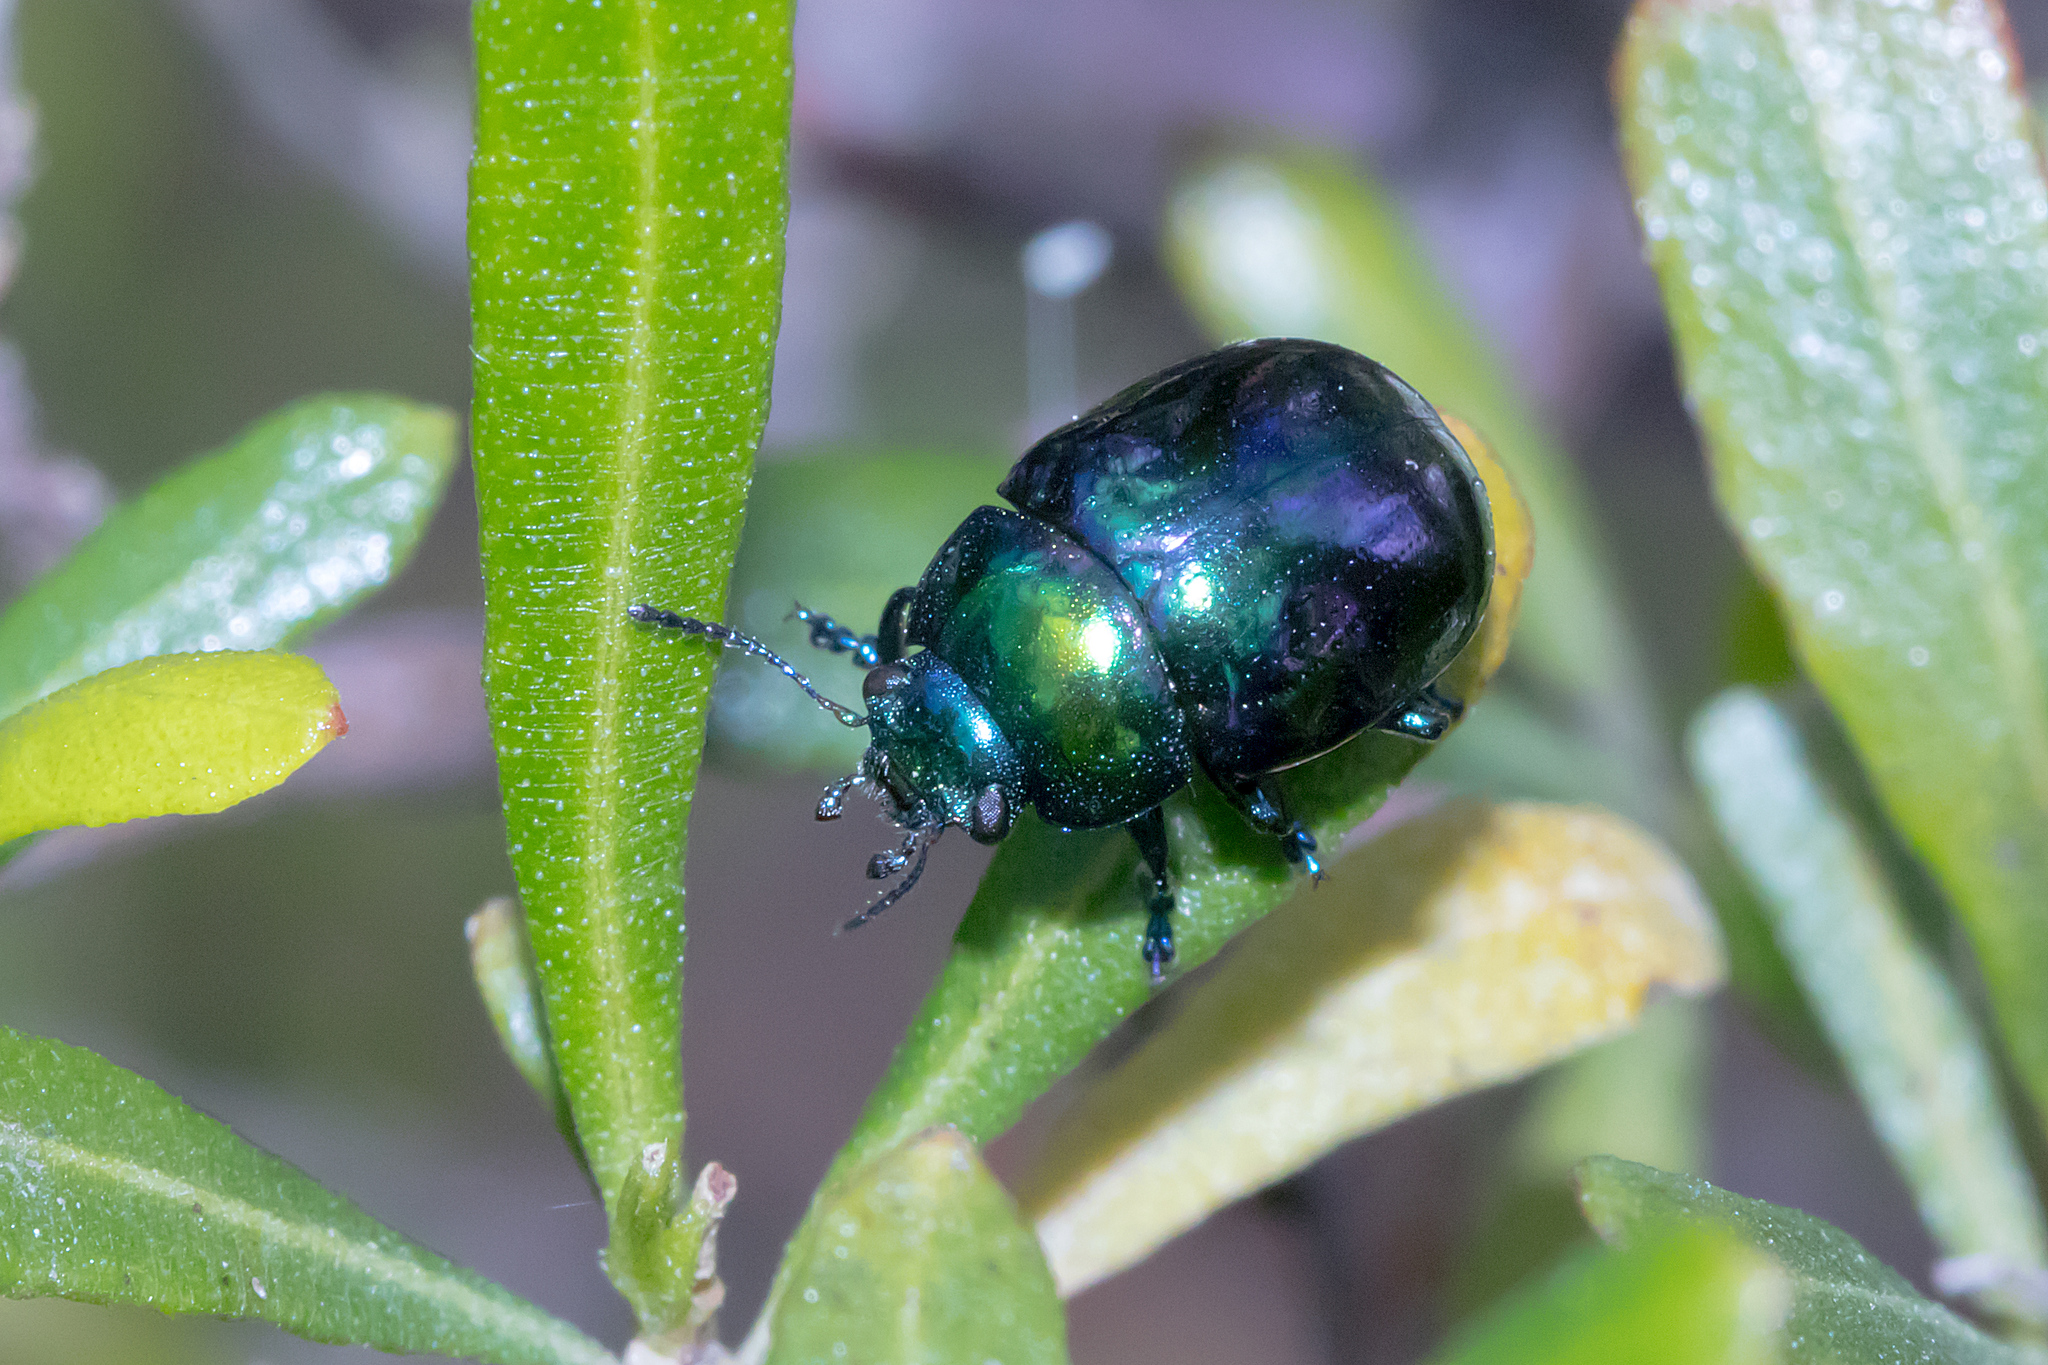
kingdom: Animalia
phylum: Arthropoda
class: Insecta
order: Coleoptera
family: Chrysomelidae
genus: Callidemum
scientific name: Callidemum
